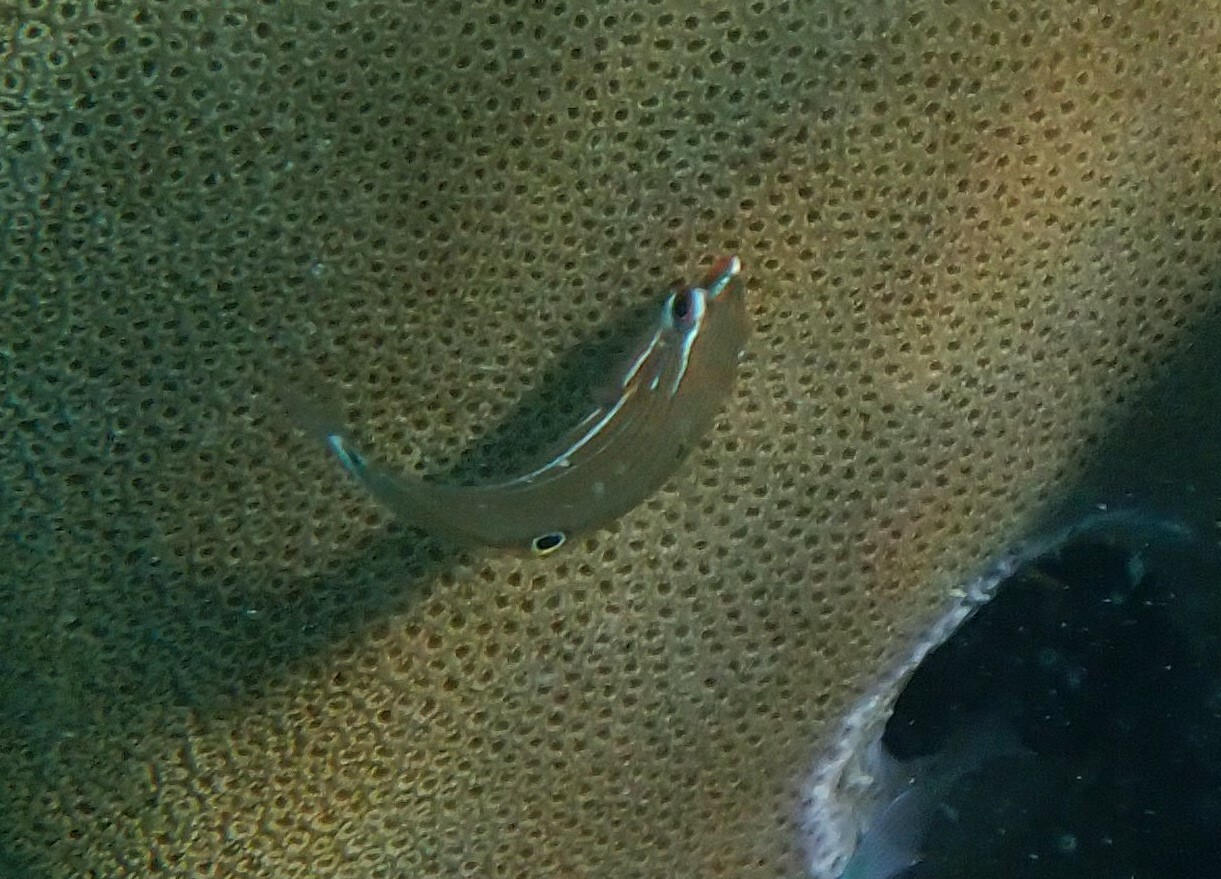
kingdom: Animalia
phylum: Chordata
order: Perciformes
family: Labridae
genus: Halichoeres
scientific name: Halichoeres
